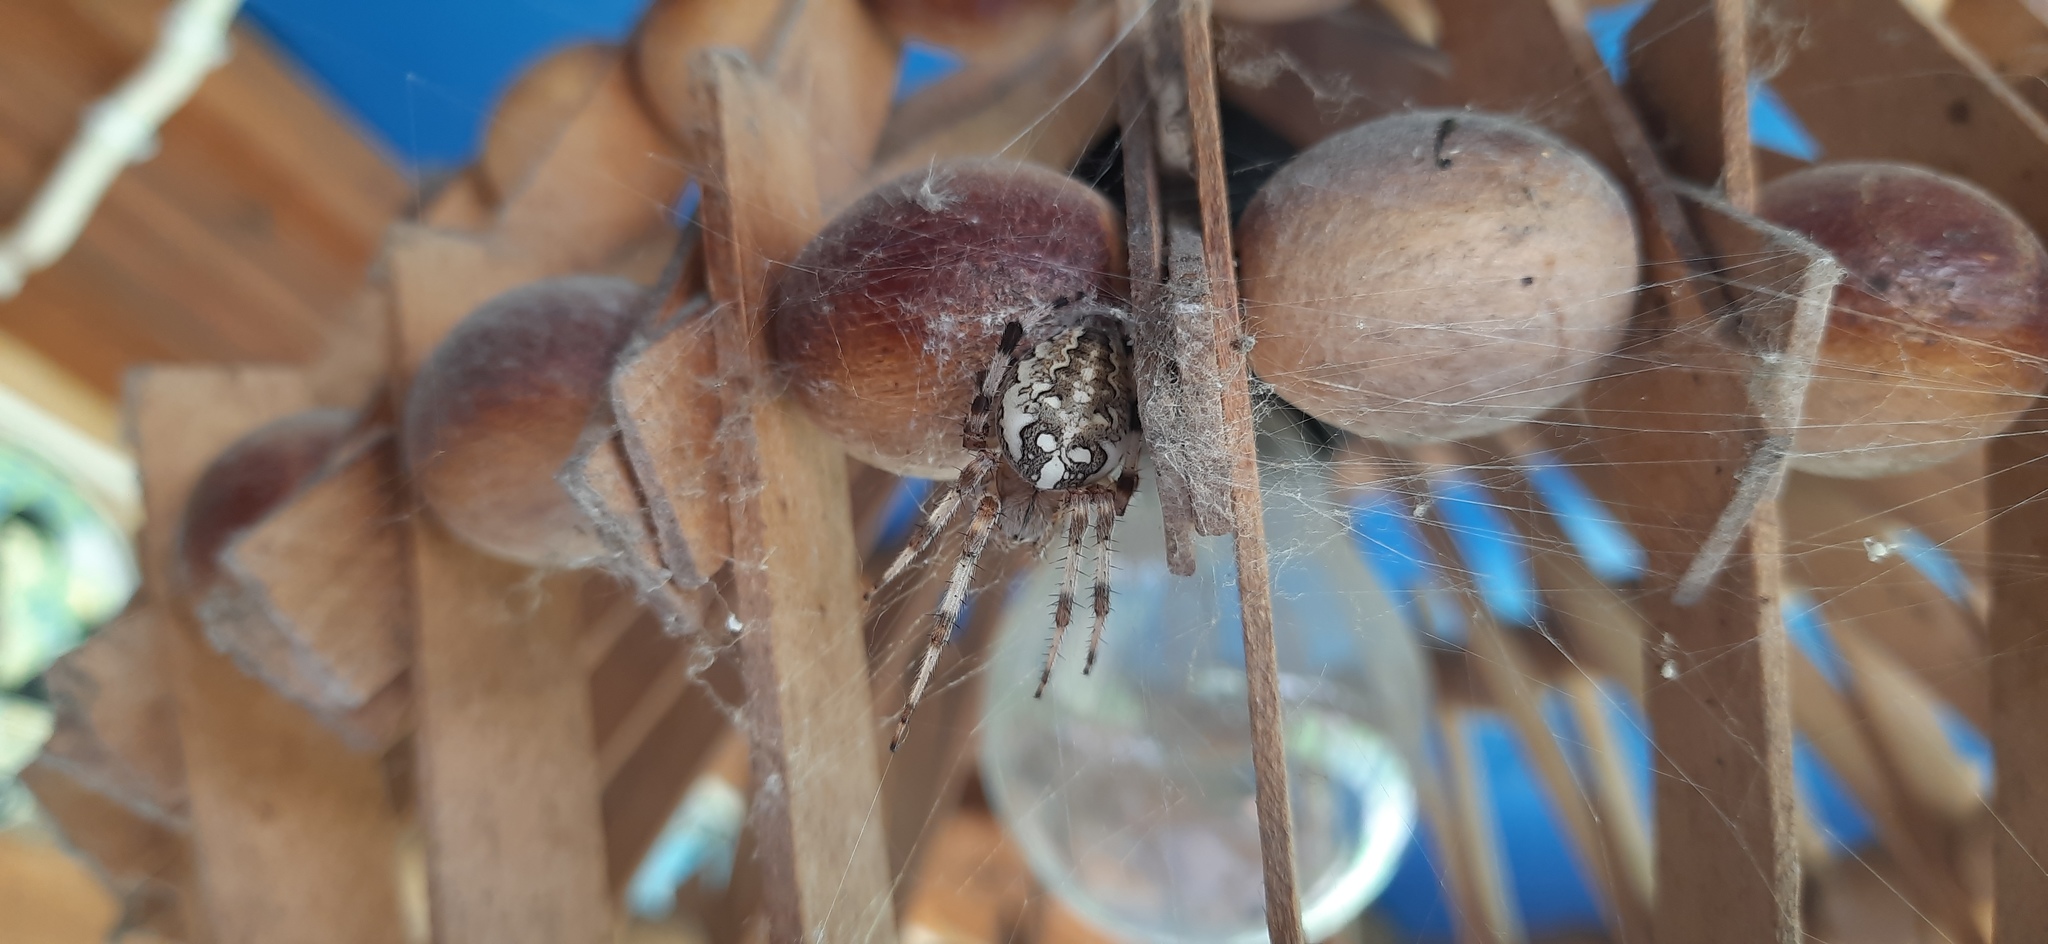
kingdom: Animalia
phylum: Arthropoda
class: Arachnida
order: Araneae
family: Araneidae
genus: Araneus
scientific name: Araneus marmoreus
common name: Marbled orbweaver
